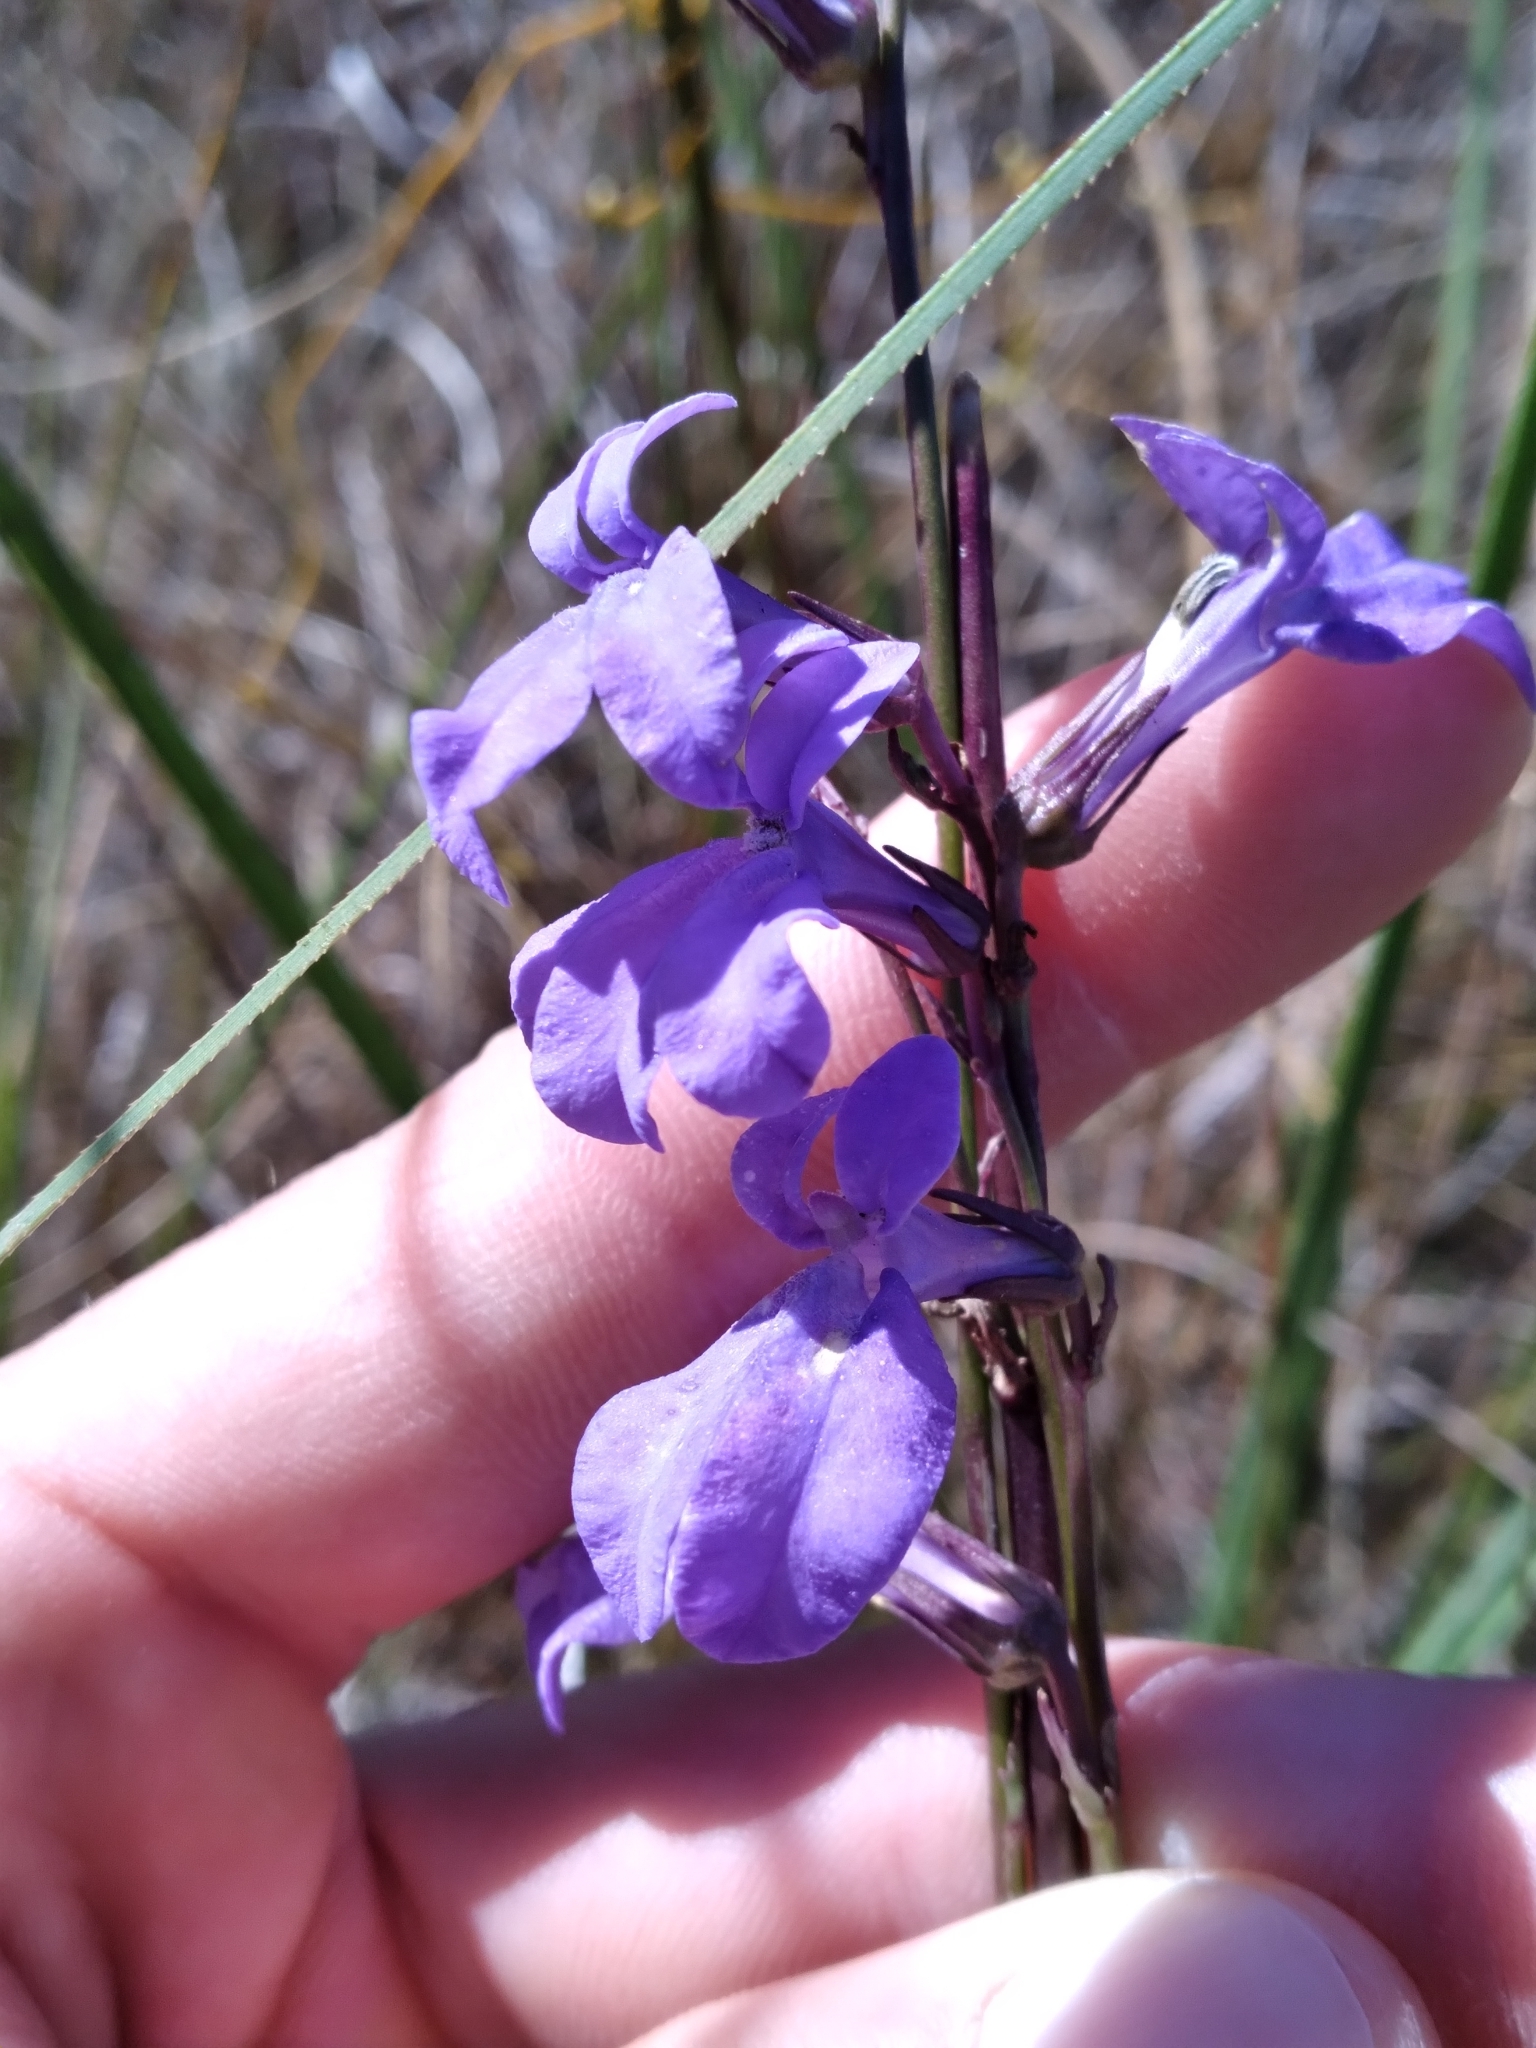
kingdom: Plantae
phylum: Tracheophyta
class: Magnoliopsida
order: Asterales
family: Campanulaceae
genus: Lobelia
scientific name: Lobelia glandulosa
